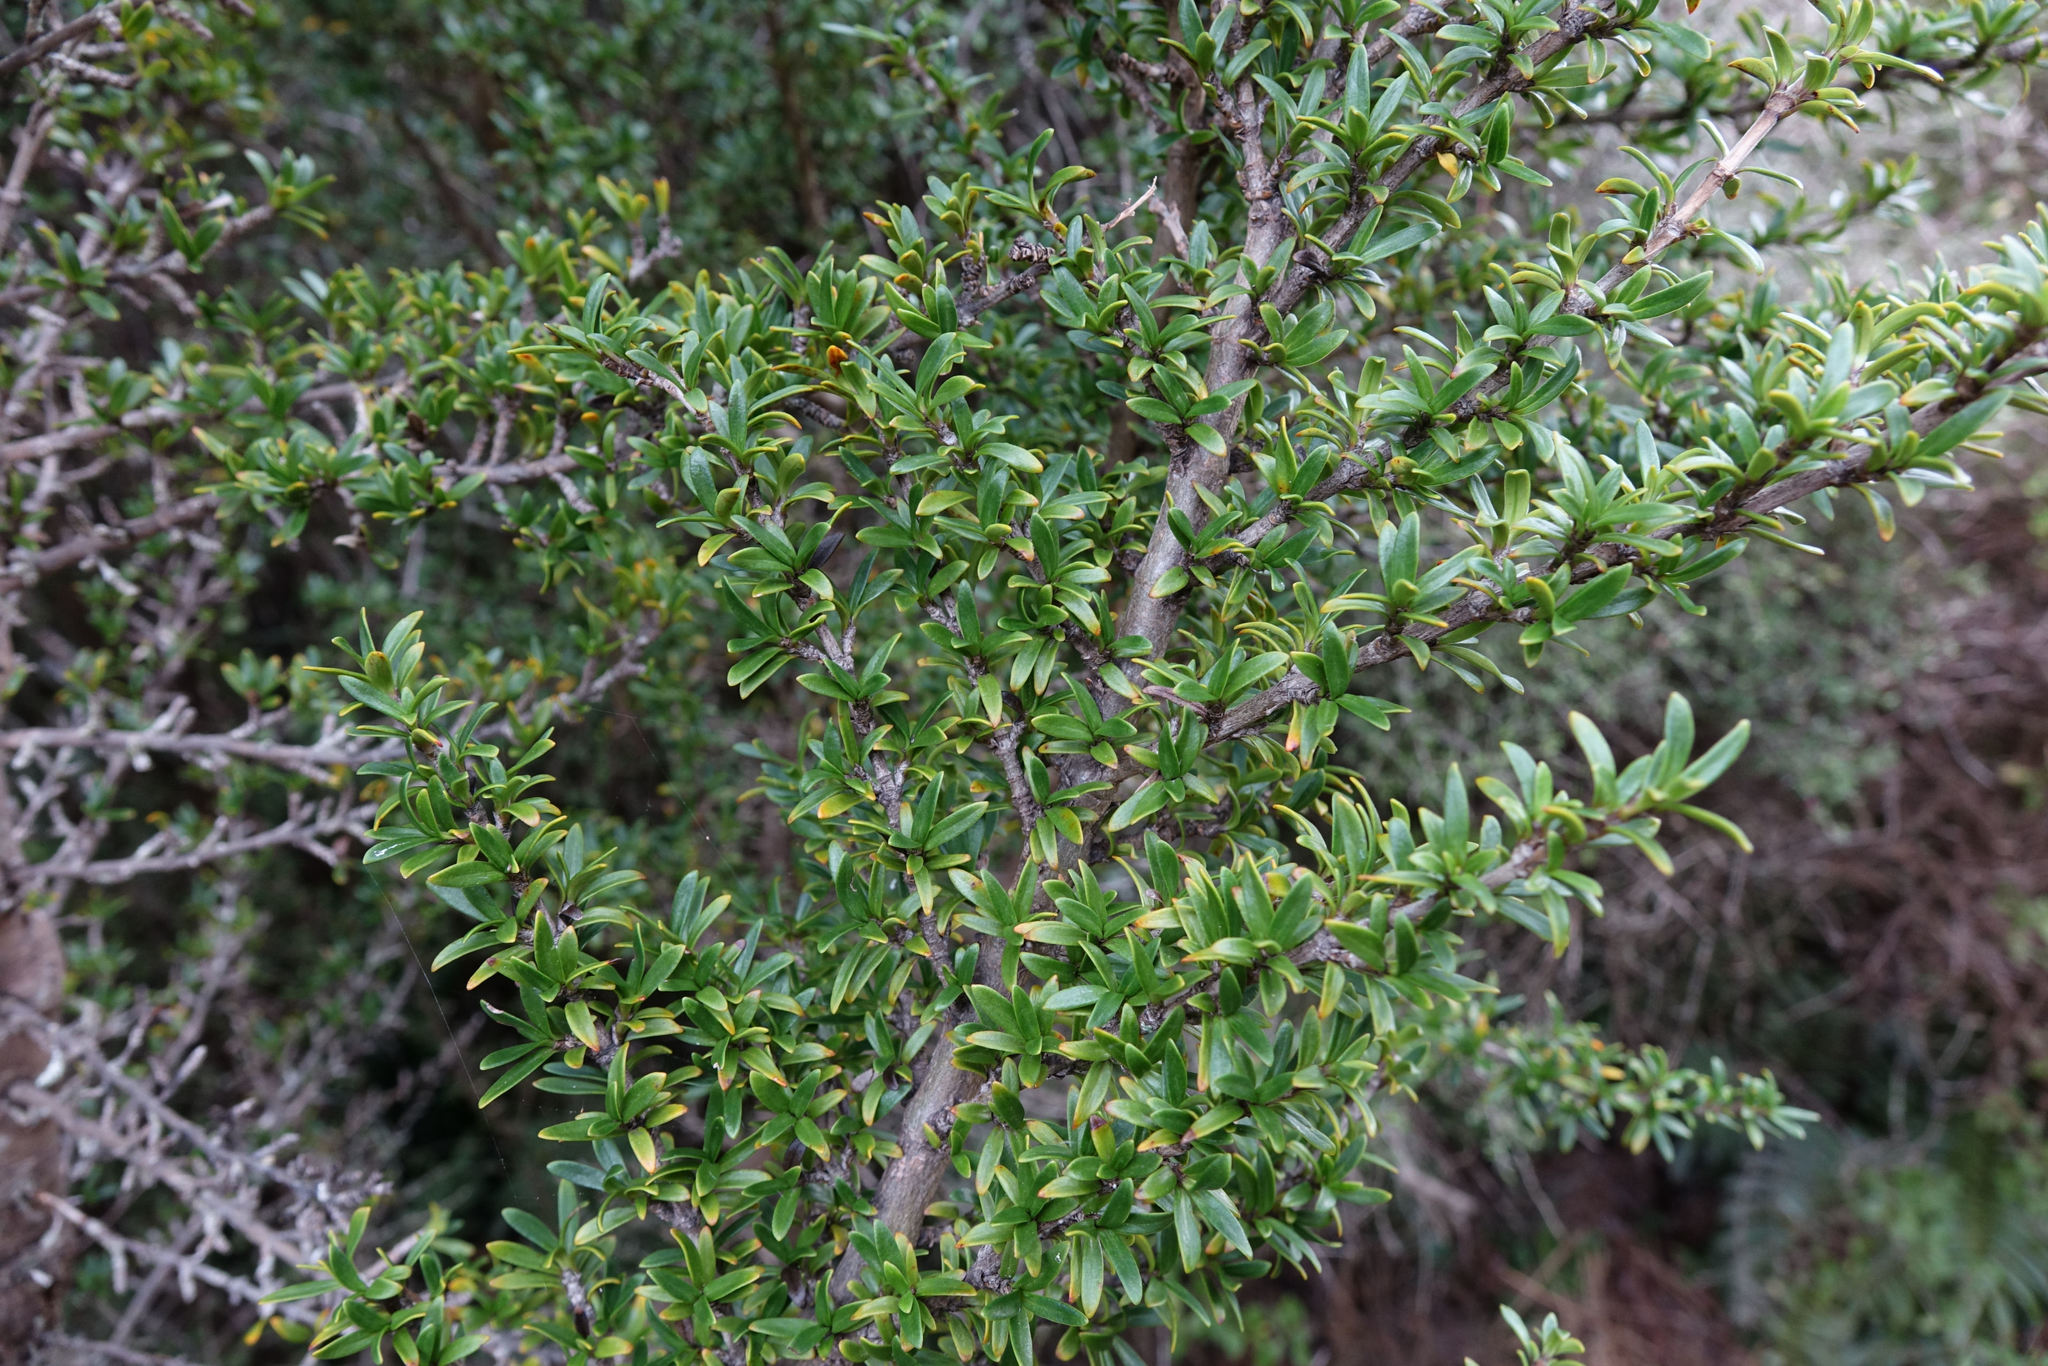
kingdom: Plantae
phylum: Tracheophyta
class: Magnoliopsida
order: Gentianales
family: Rubiaceae
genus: Coprosma
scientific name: Coprosma pseudocuneata
